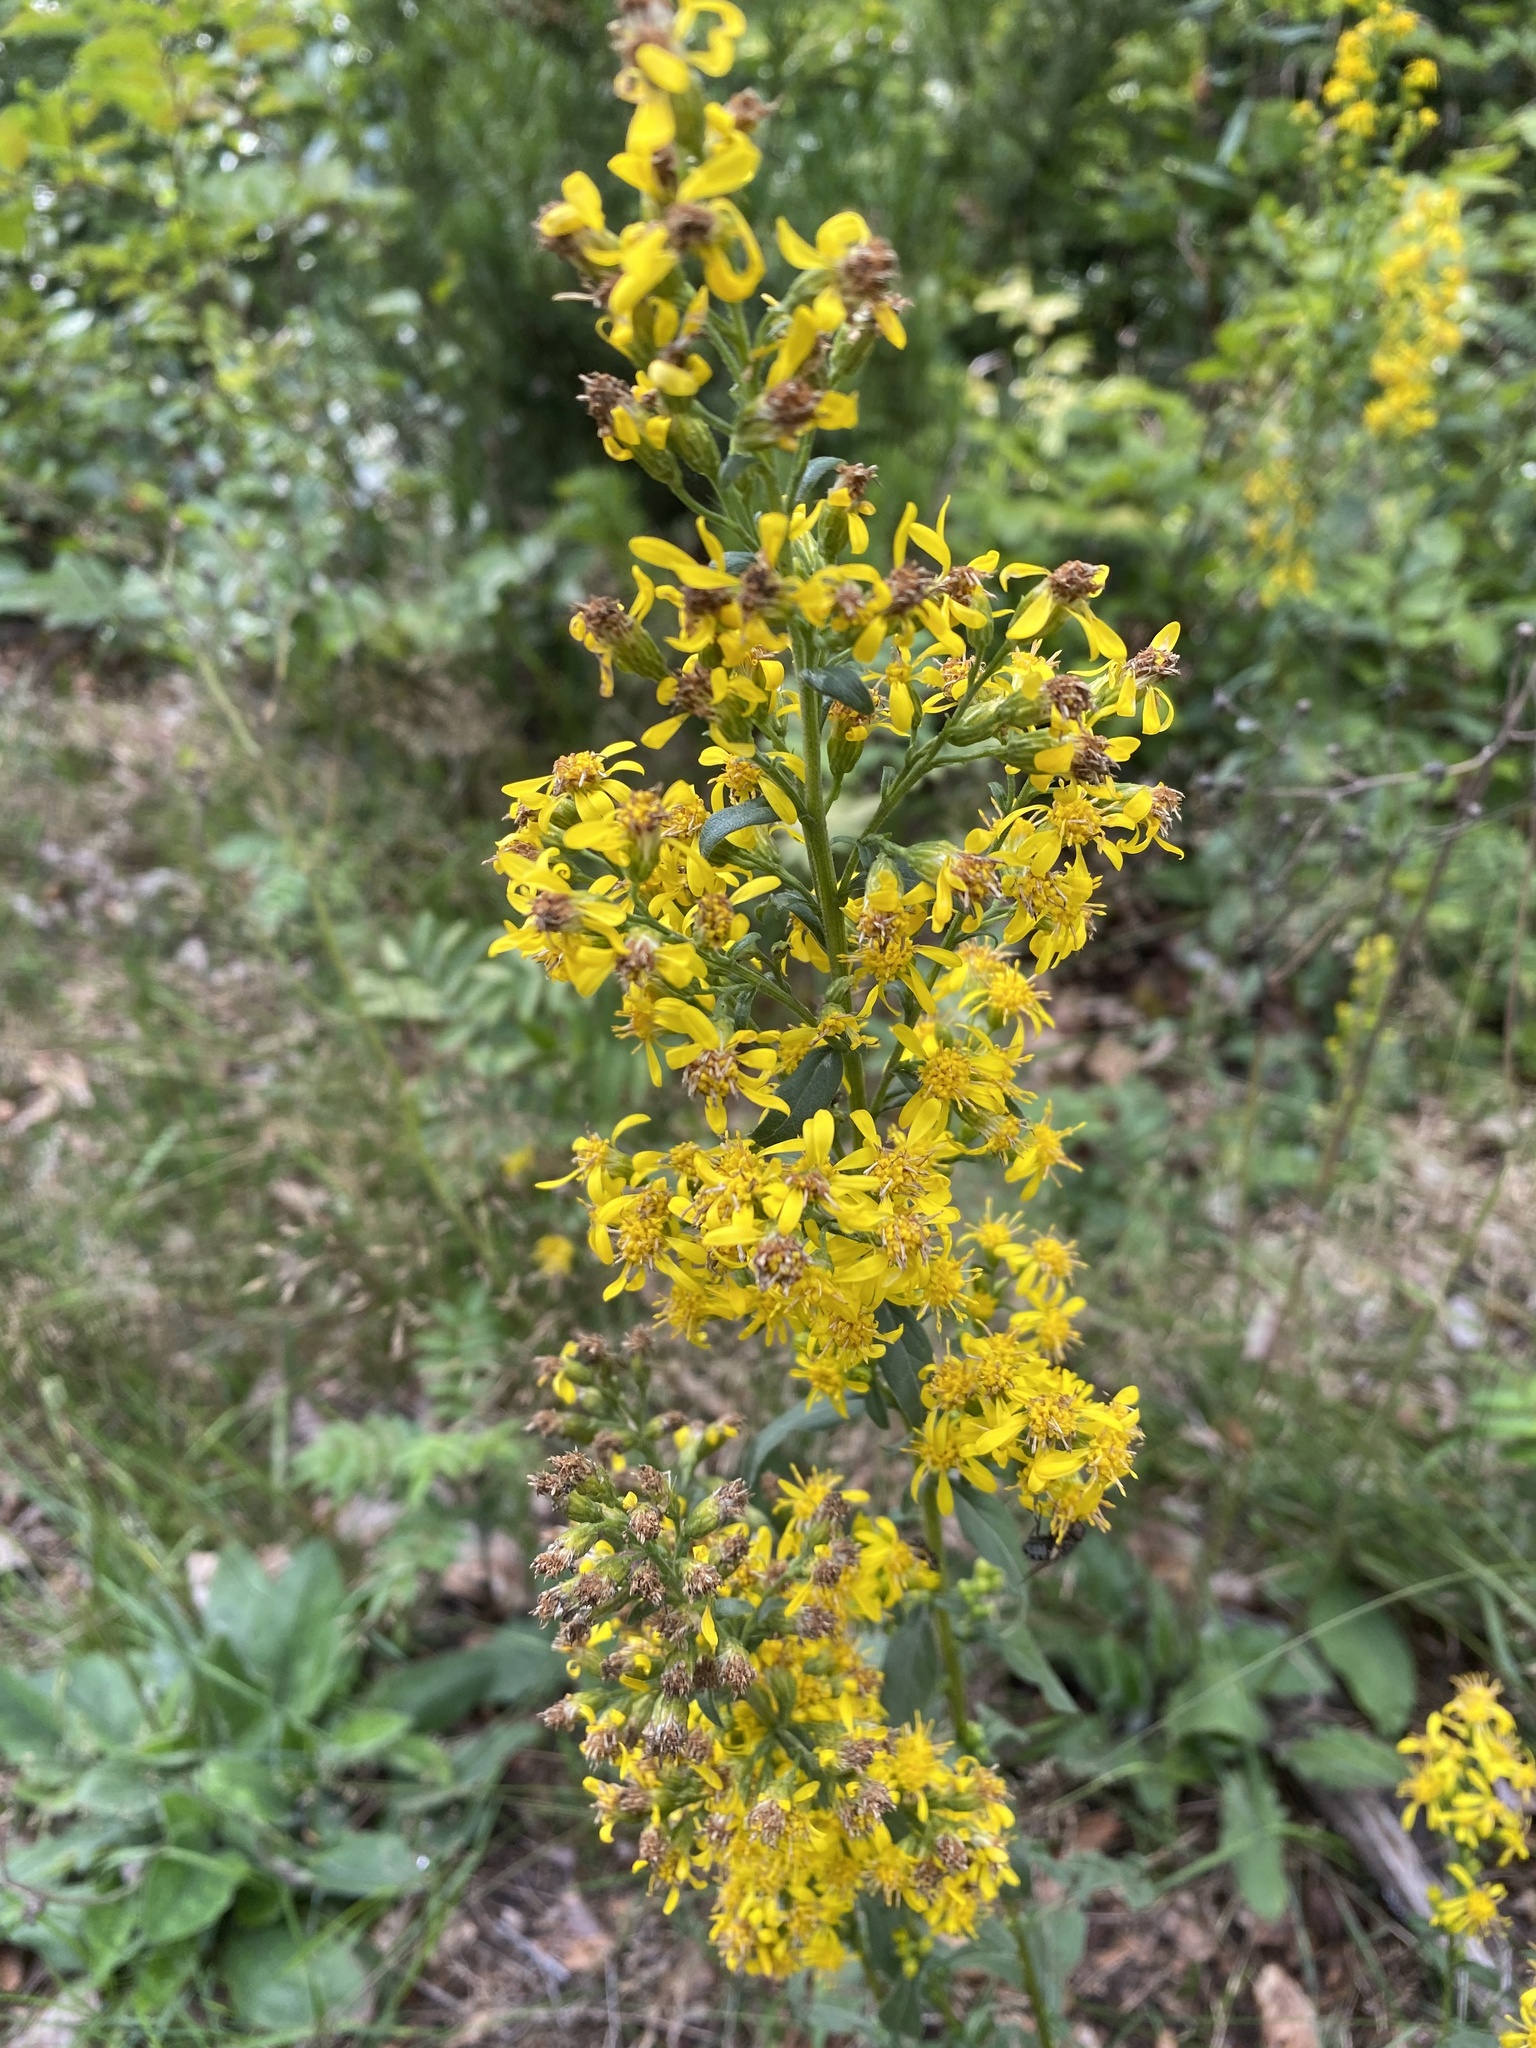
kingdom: Plantae
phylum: Tracheophyta
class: Magnoliopsida
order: Asterales
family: Asteraceae
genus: Solidago
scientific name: Solidago virgaurea
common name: Goldenrod
